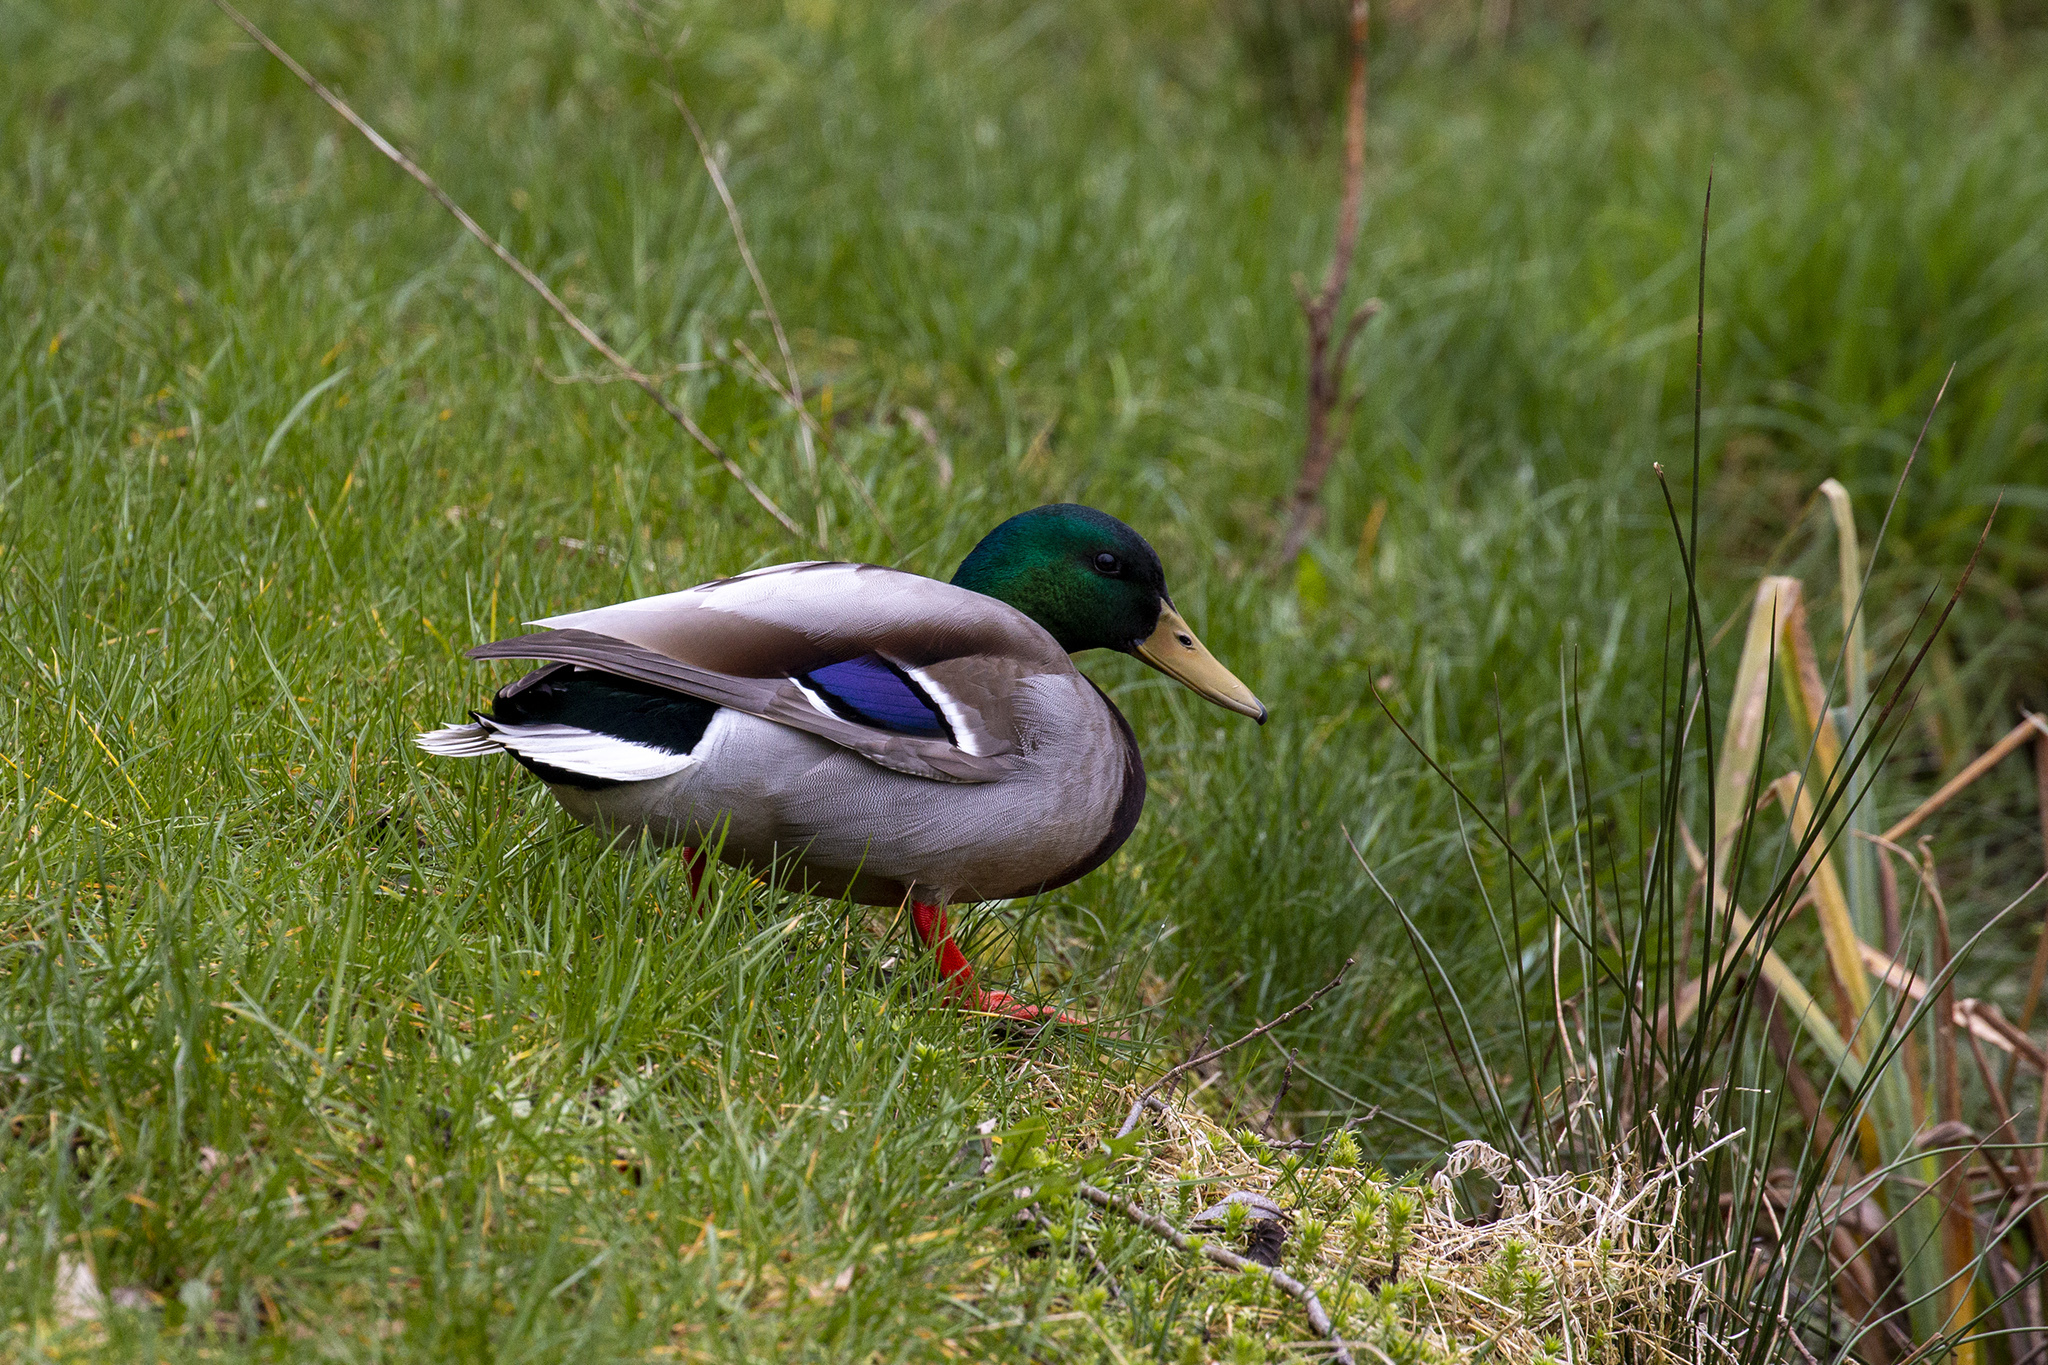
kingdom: Animalia
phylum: Chordata
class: Aves
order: Anseriformes
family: Anatidae
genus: Anas
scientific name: Anas platyrhynchos
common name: Mallard
